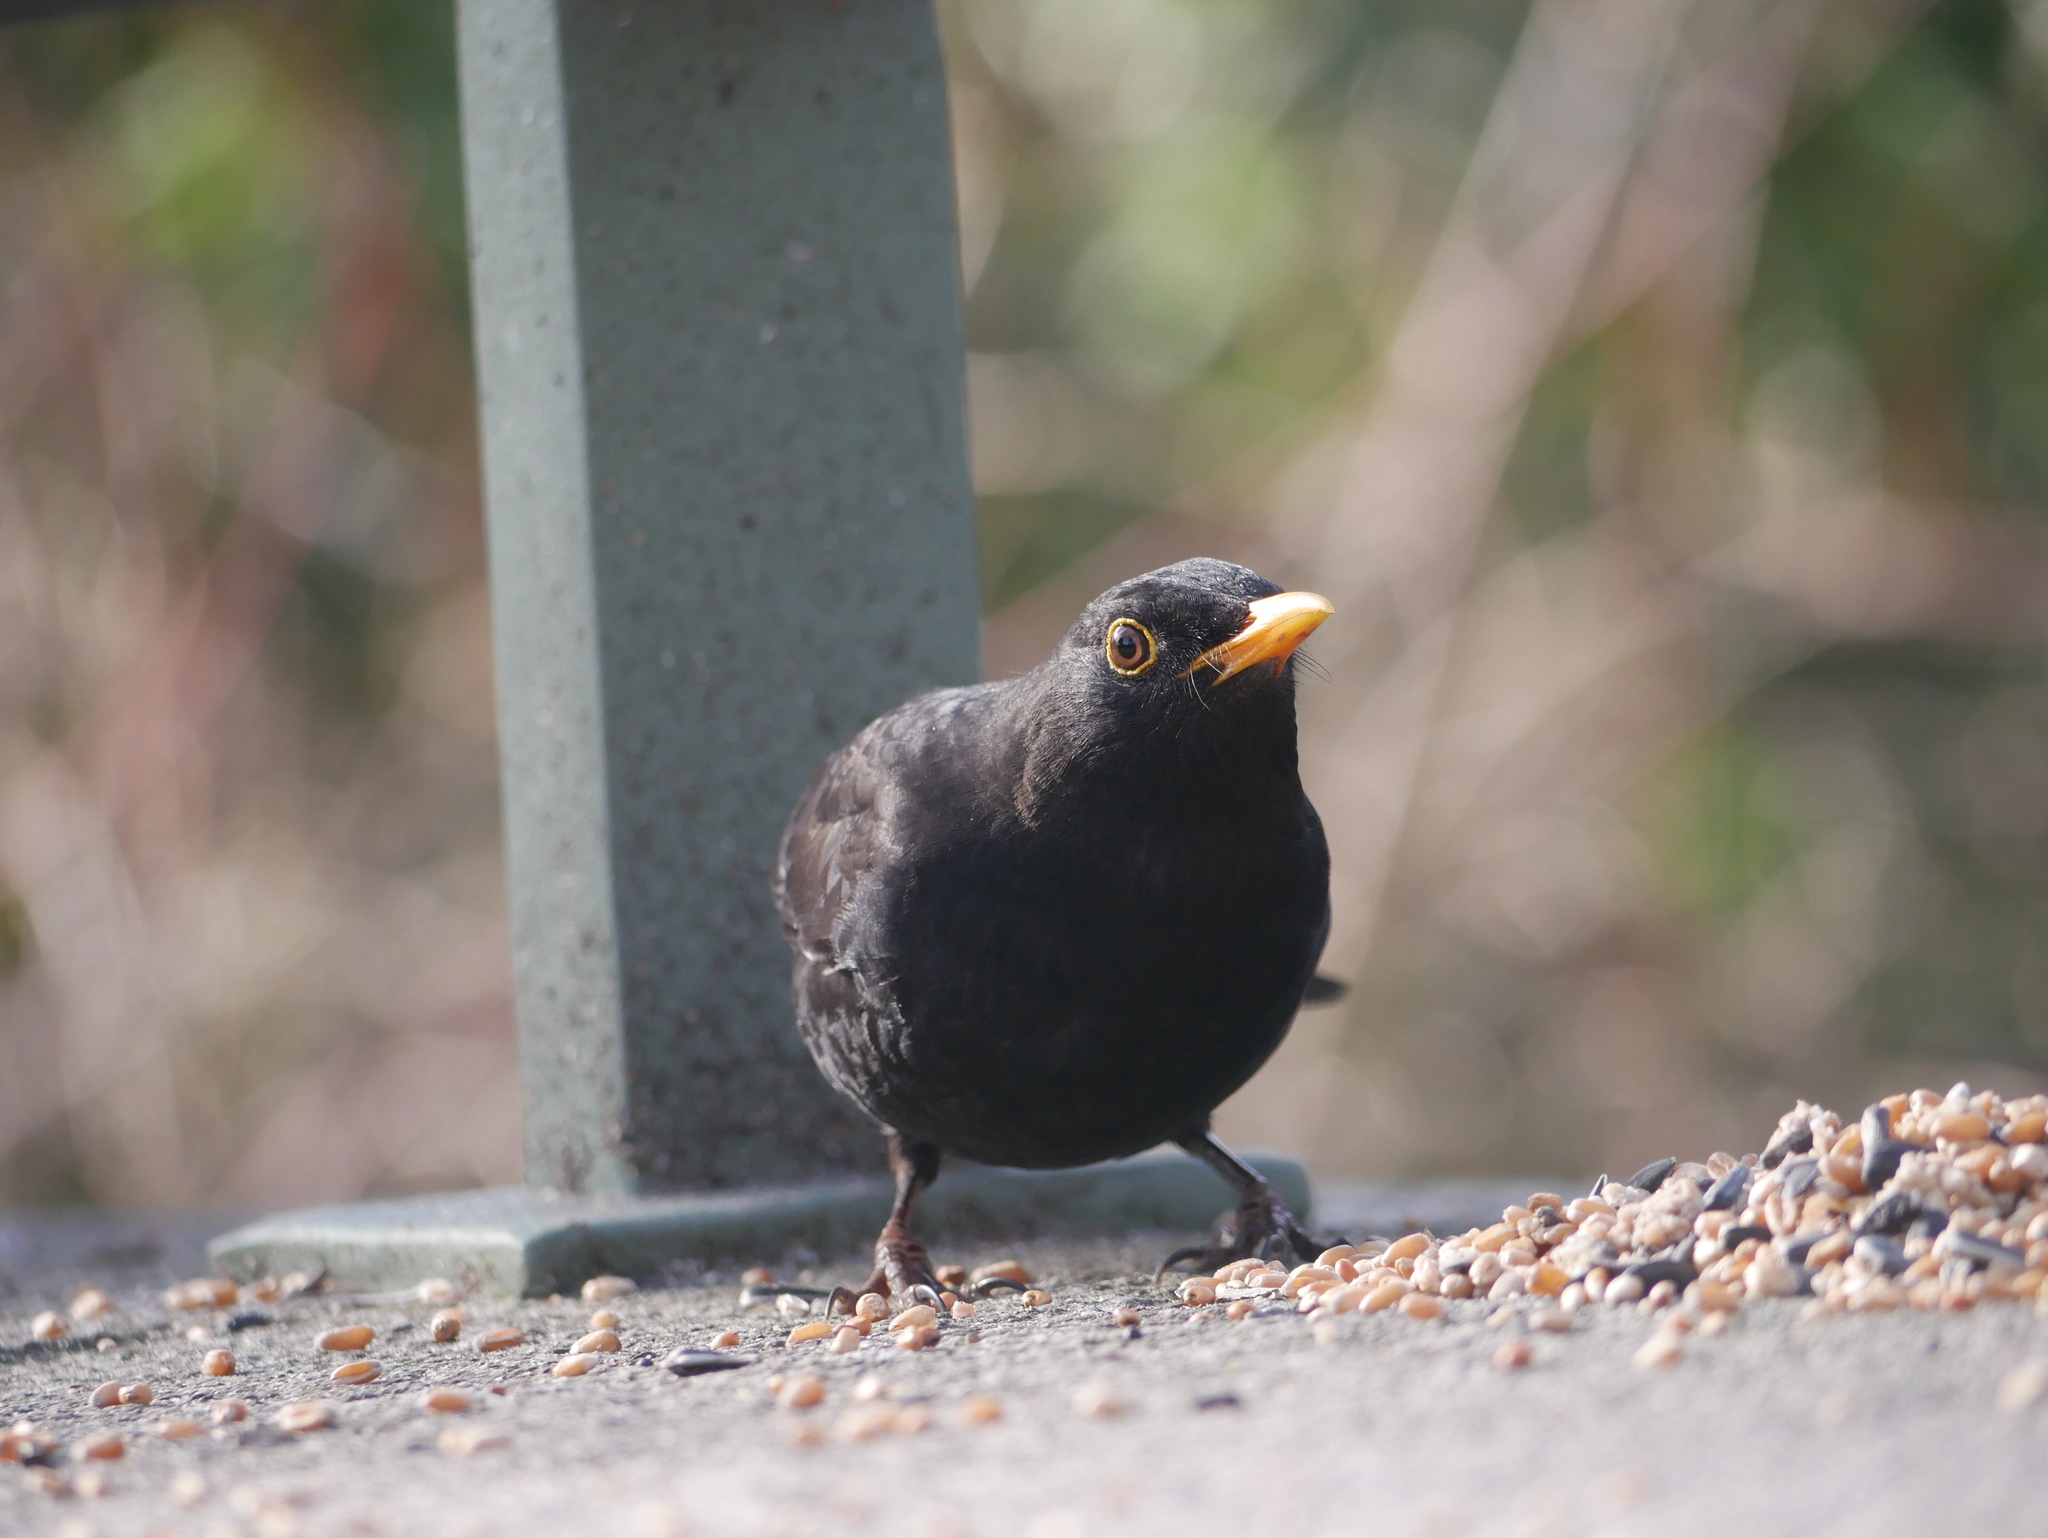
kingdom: Animalia
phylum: Chordata
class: Aves
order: Passeriformes
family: Turdidae
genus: Turdus
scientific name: Turdus merula
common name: Common blackbird
